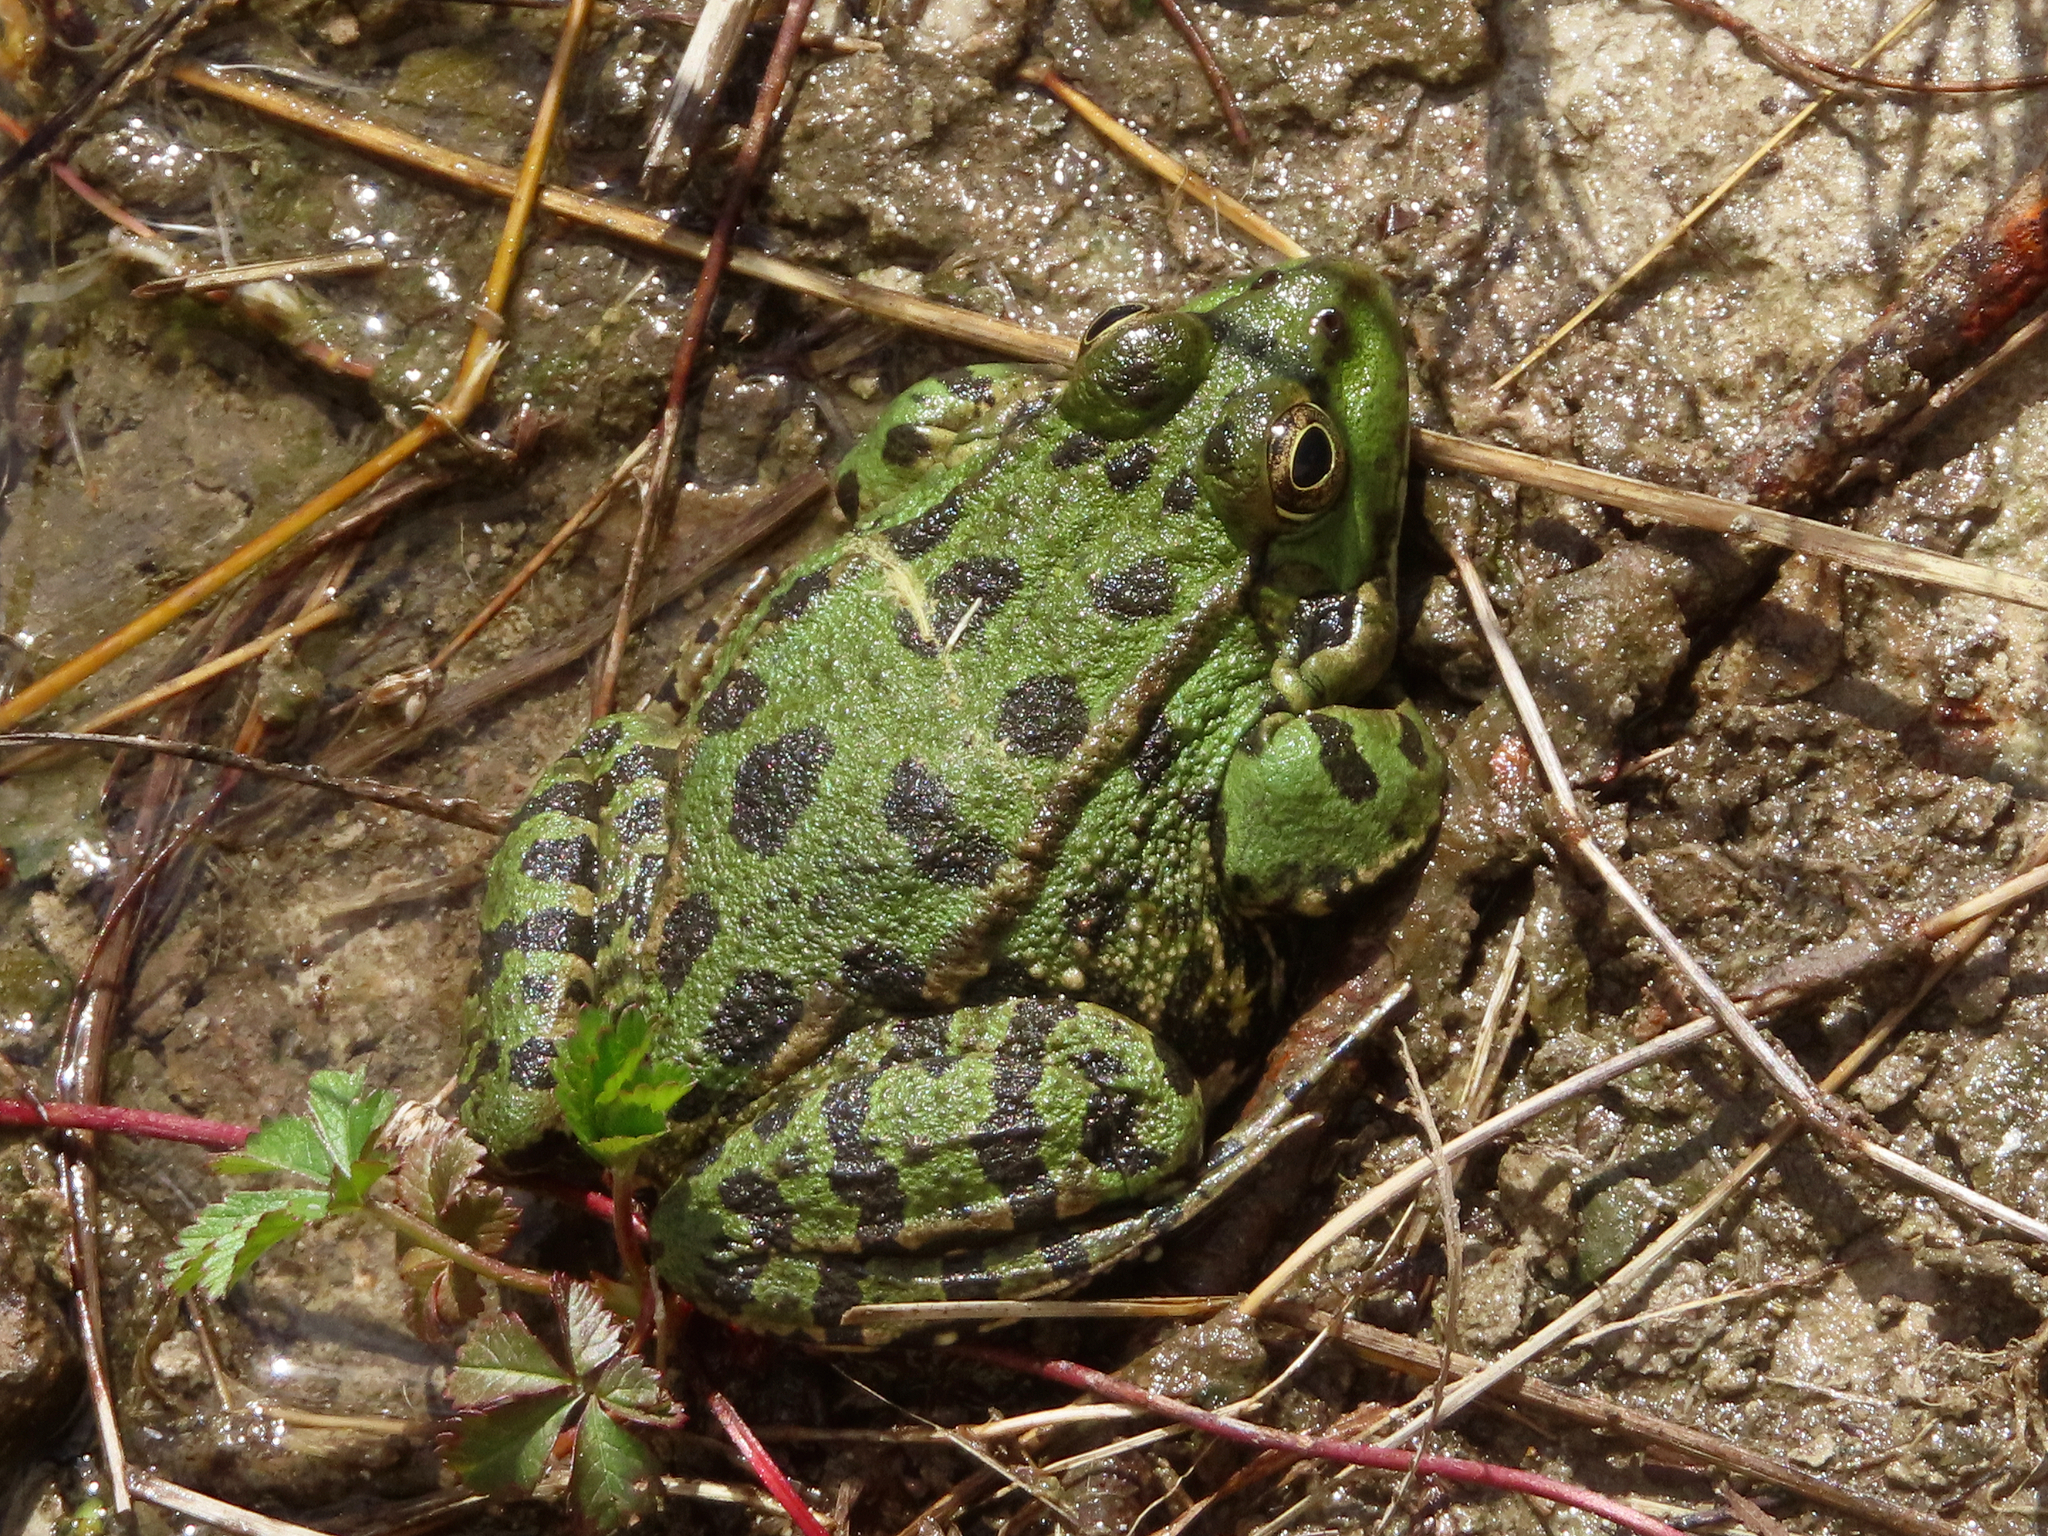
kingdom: Animalia
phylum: Chordata
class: Amphibia
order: Anura
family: Ranidae
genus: Pelophylax
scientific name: Pelophylax ridibundus
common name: Marsh frog
